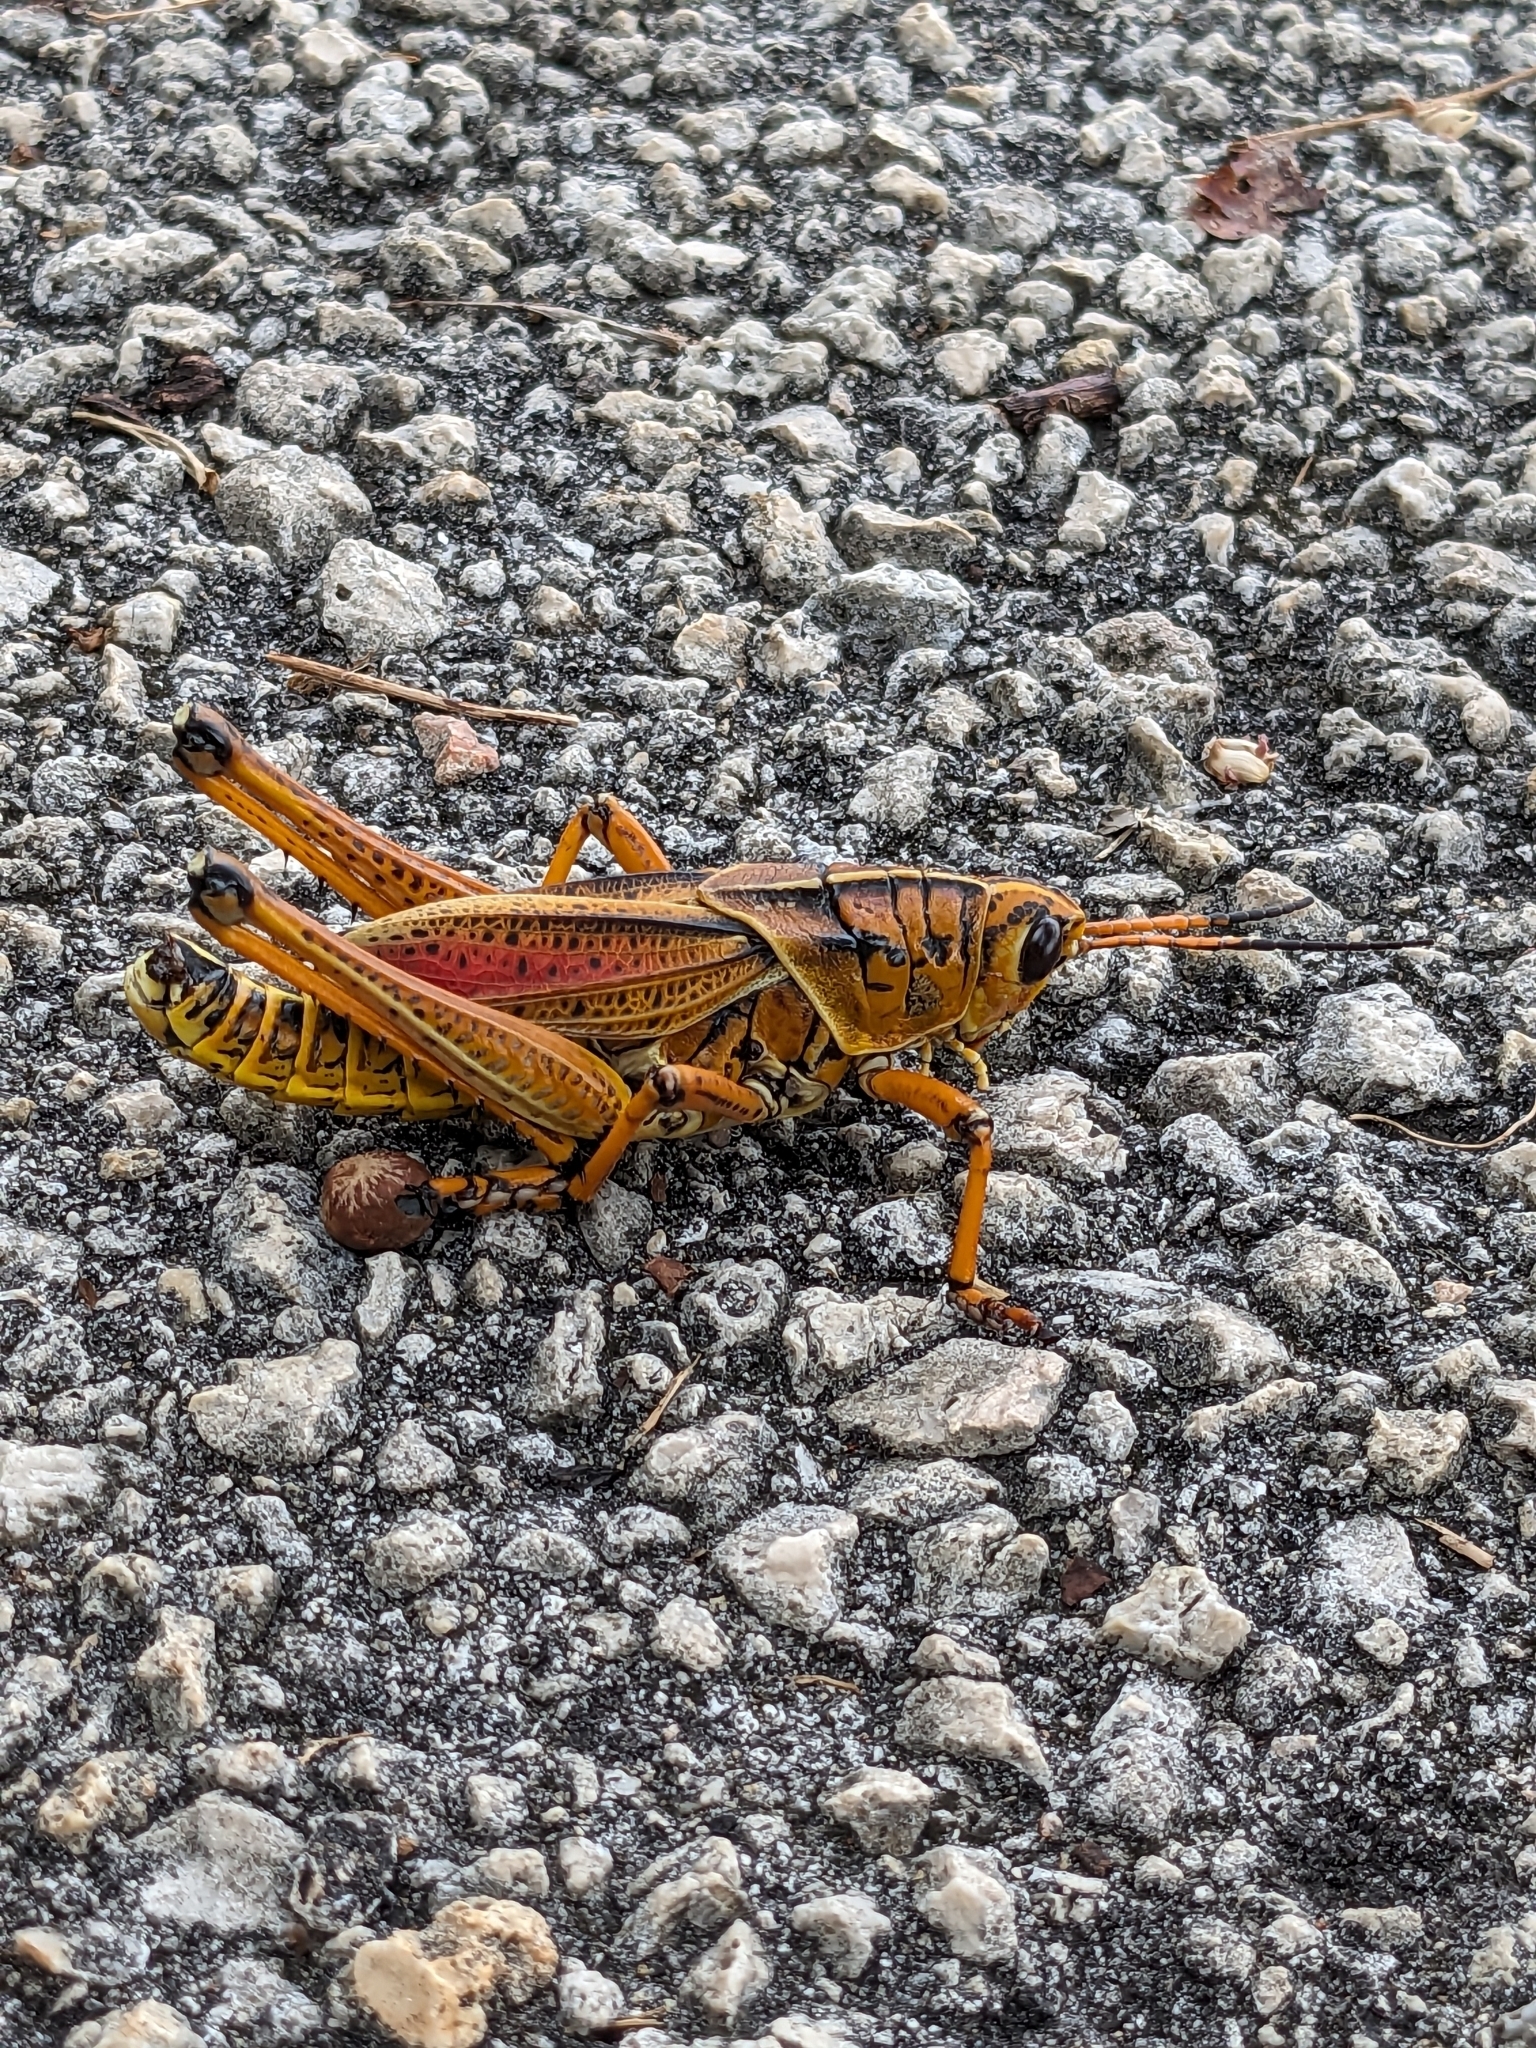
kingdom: Animalia
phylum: Arthropoda
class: Insecta
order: Orthoptera
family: Romaleidae
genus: Romalea
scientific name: Romalea microptera
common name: Eastern lubber grasshopper
